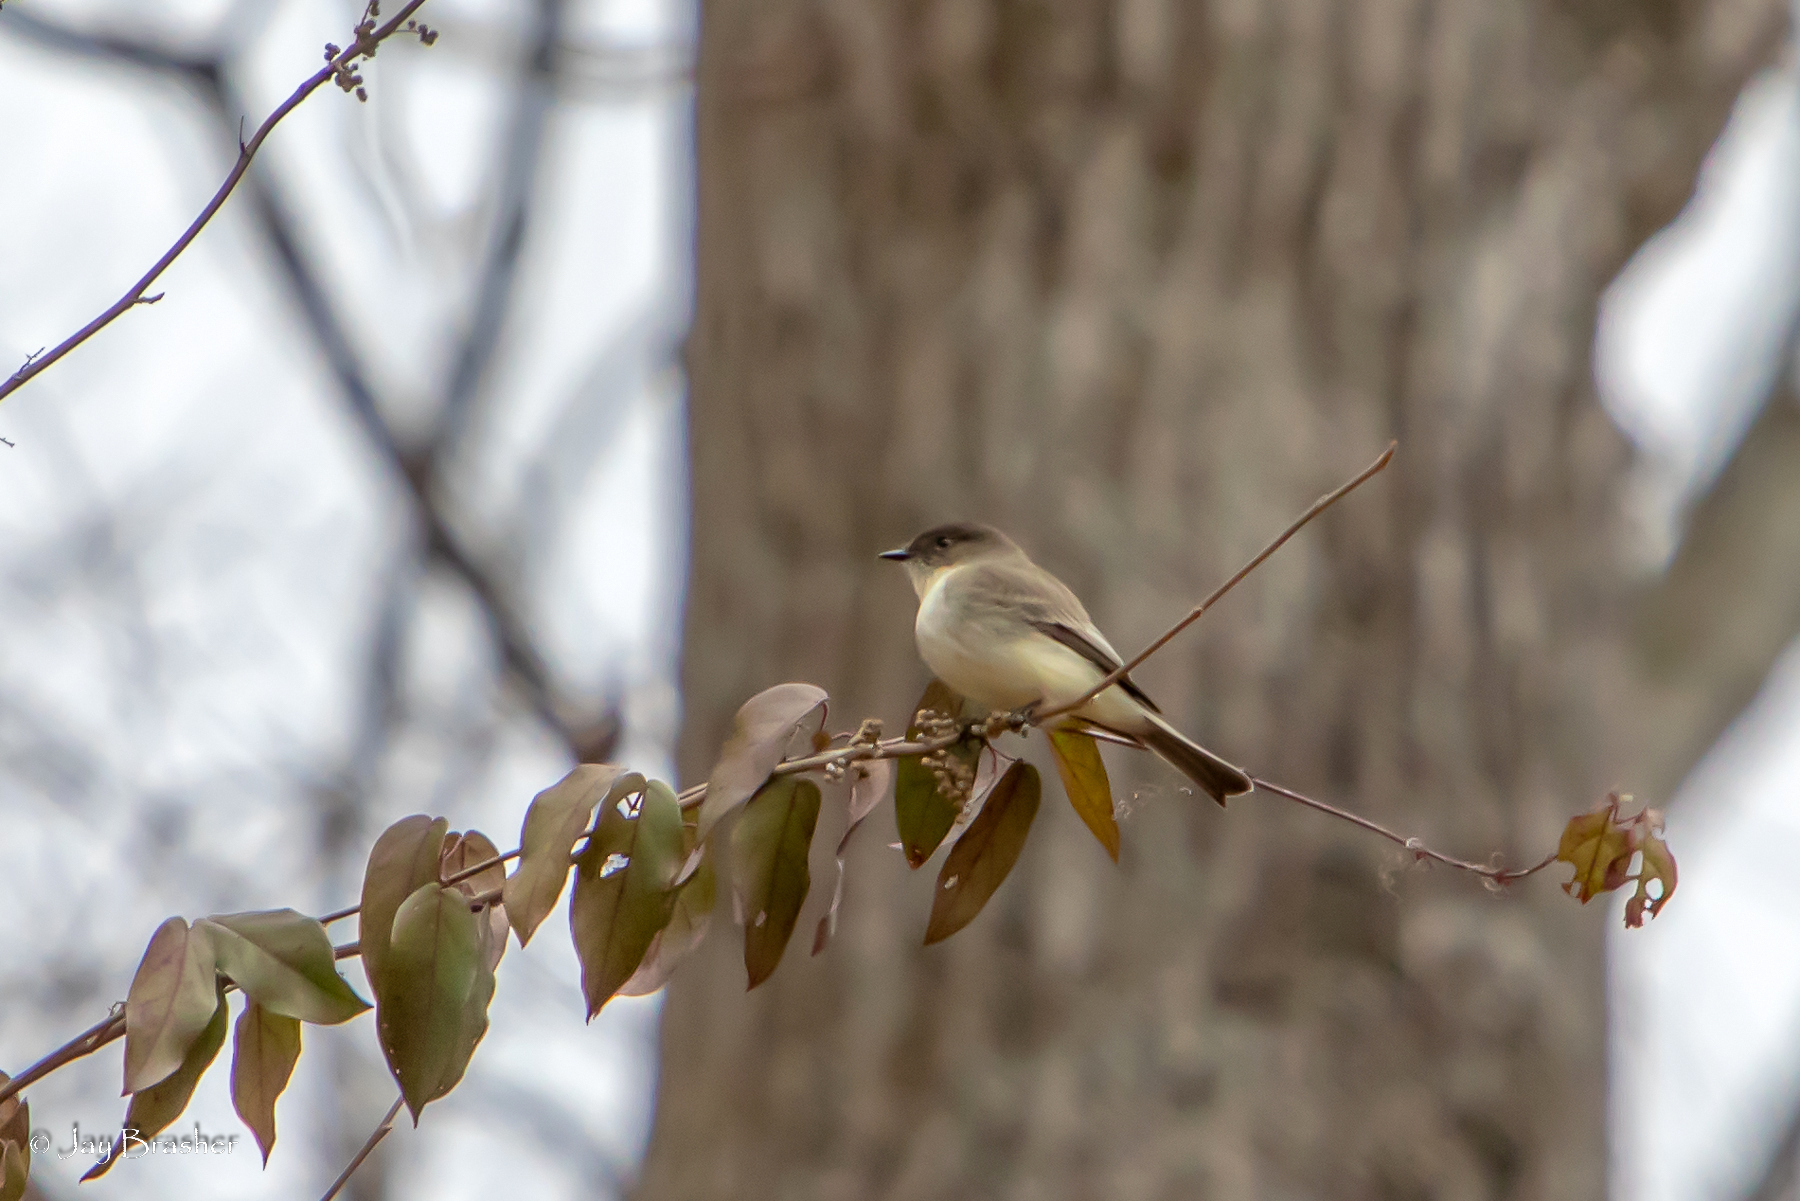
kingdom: Animalia
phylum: Chordata
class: Aves
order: Passeriformes
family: Tyrannidae
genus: Sayornis
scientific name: Sayornis phoebe
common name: Eastern phoebe
